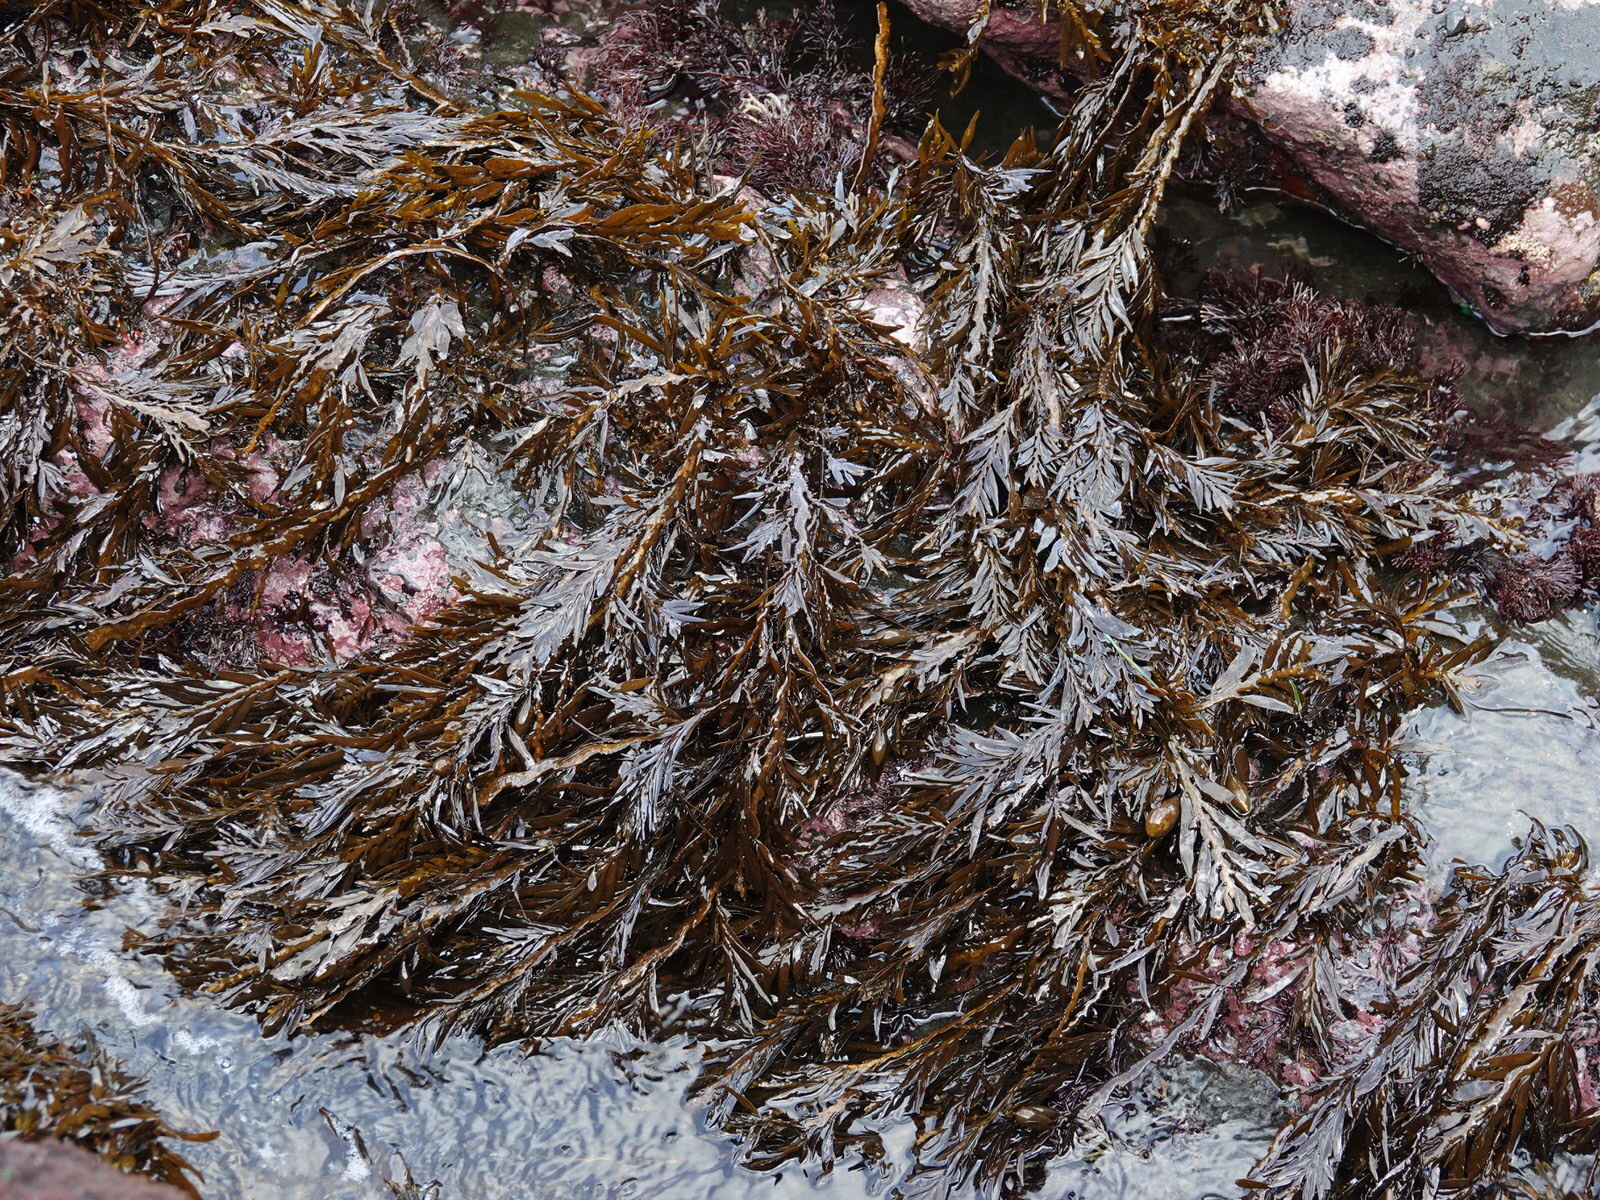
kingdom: Chromista
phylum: Ochrophyta
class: Phaeophyceae
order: Fucales
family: Sargassaceae
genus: Carpophyllum
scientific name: Carpophyllum maschalocarpum
